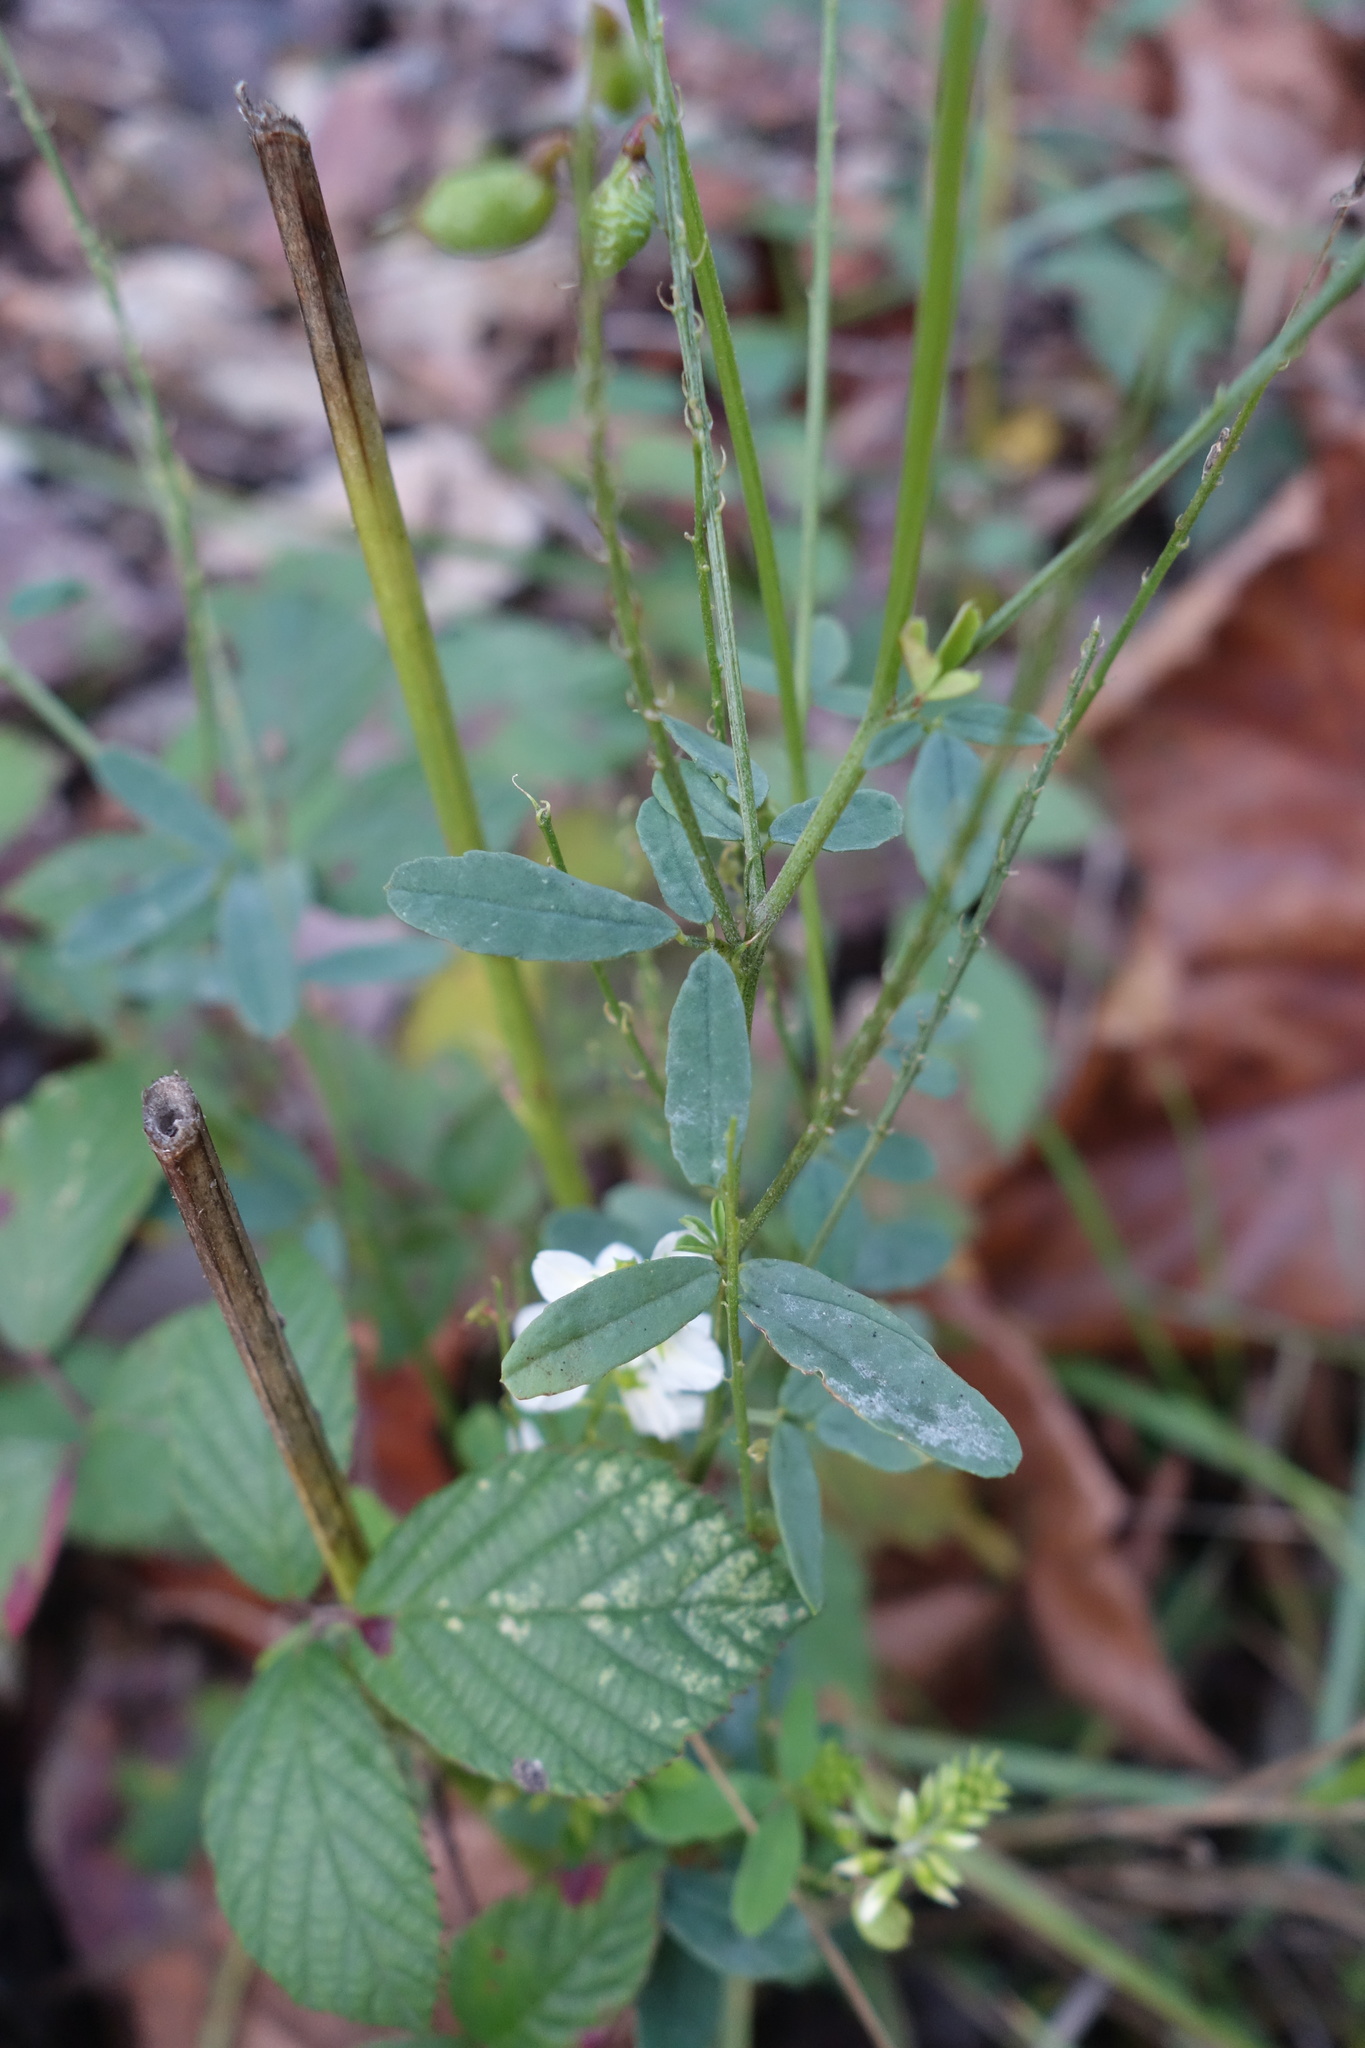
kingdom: Plantae
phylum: Tracheophyta
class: Magnoliopsida
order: Fabales
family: Fabaceae
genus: Melilotus
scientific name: Melilotus albus
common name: White melilot
